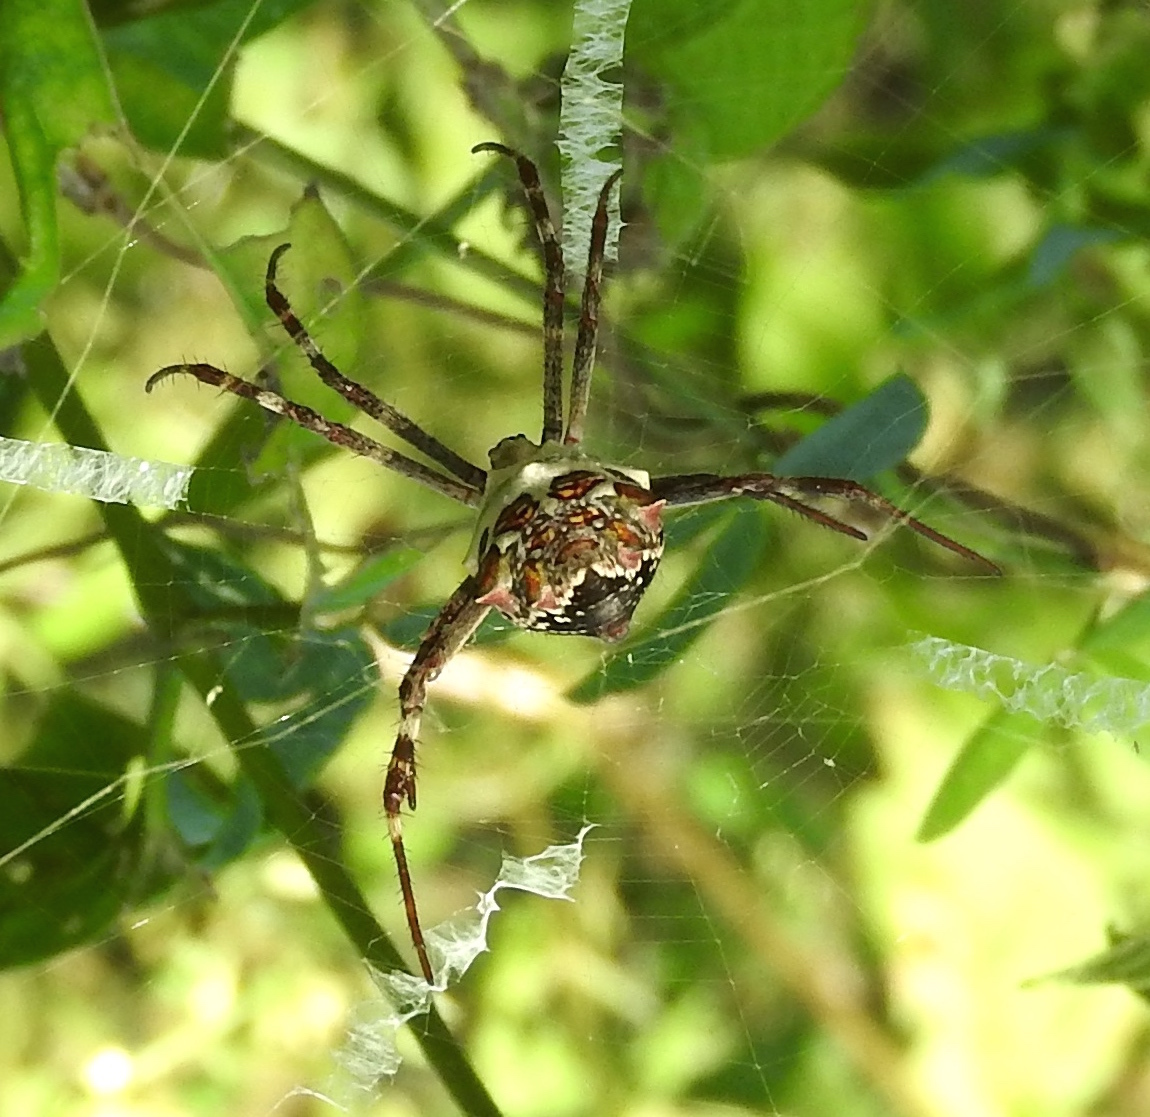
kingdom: Animalia
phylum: Arthropoda
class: Arachnida
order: Araneae
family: Araneidae
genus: Argiope
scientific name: Argiope argentata
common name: Orb weavers
